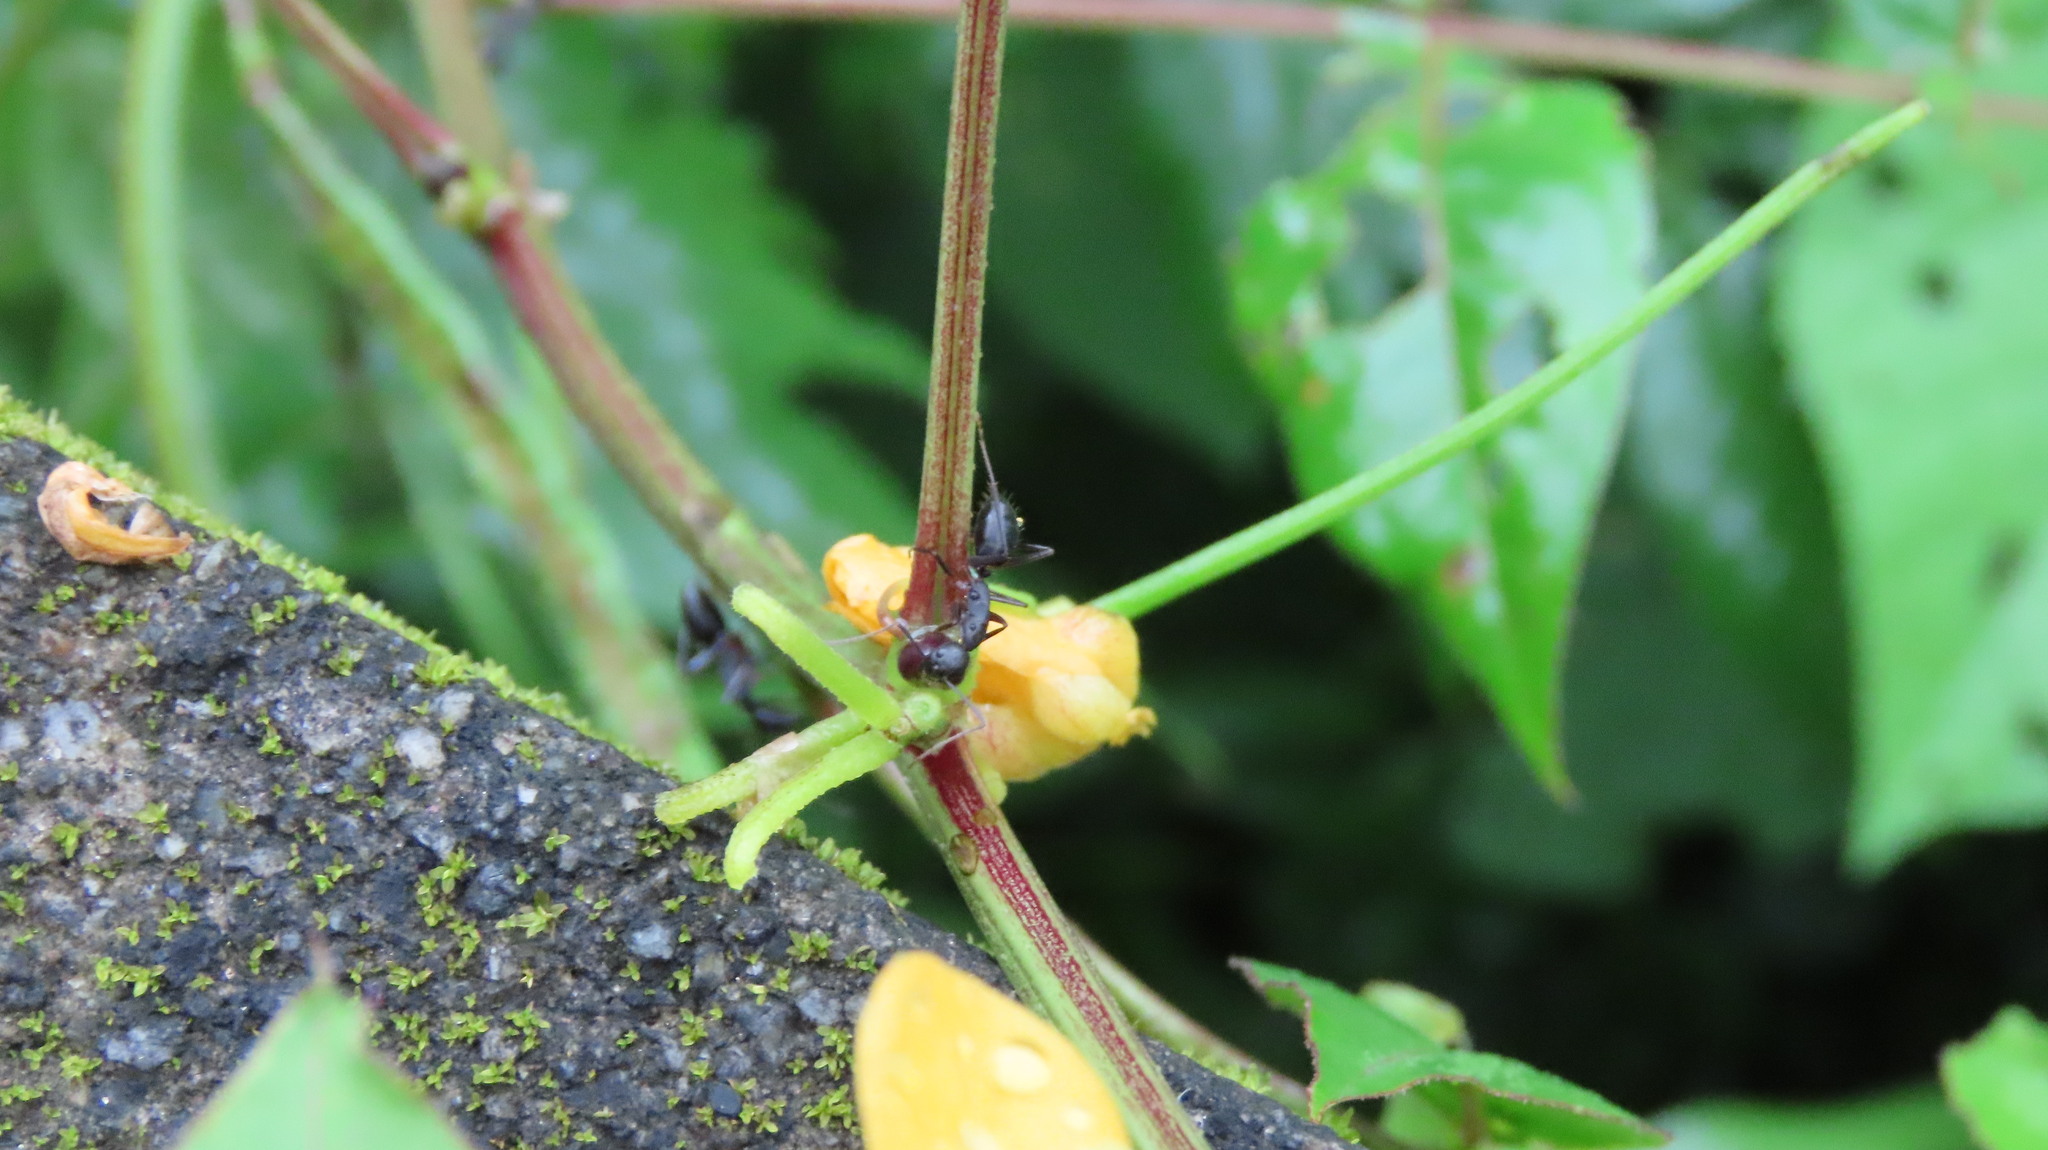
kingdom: Animalia
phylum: Arthropoda
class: Insecta
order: Hymenoptera
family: Formicidae
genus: Camponotus
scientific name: Camponotus compressus
